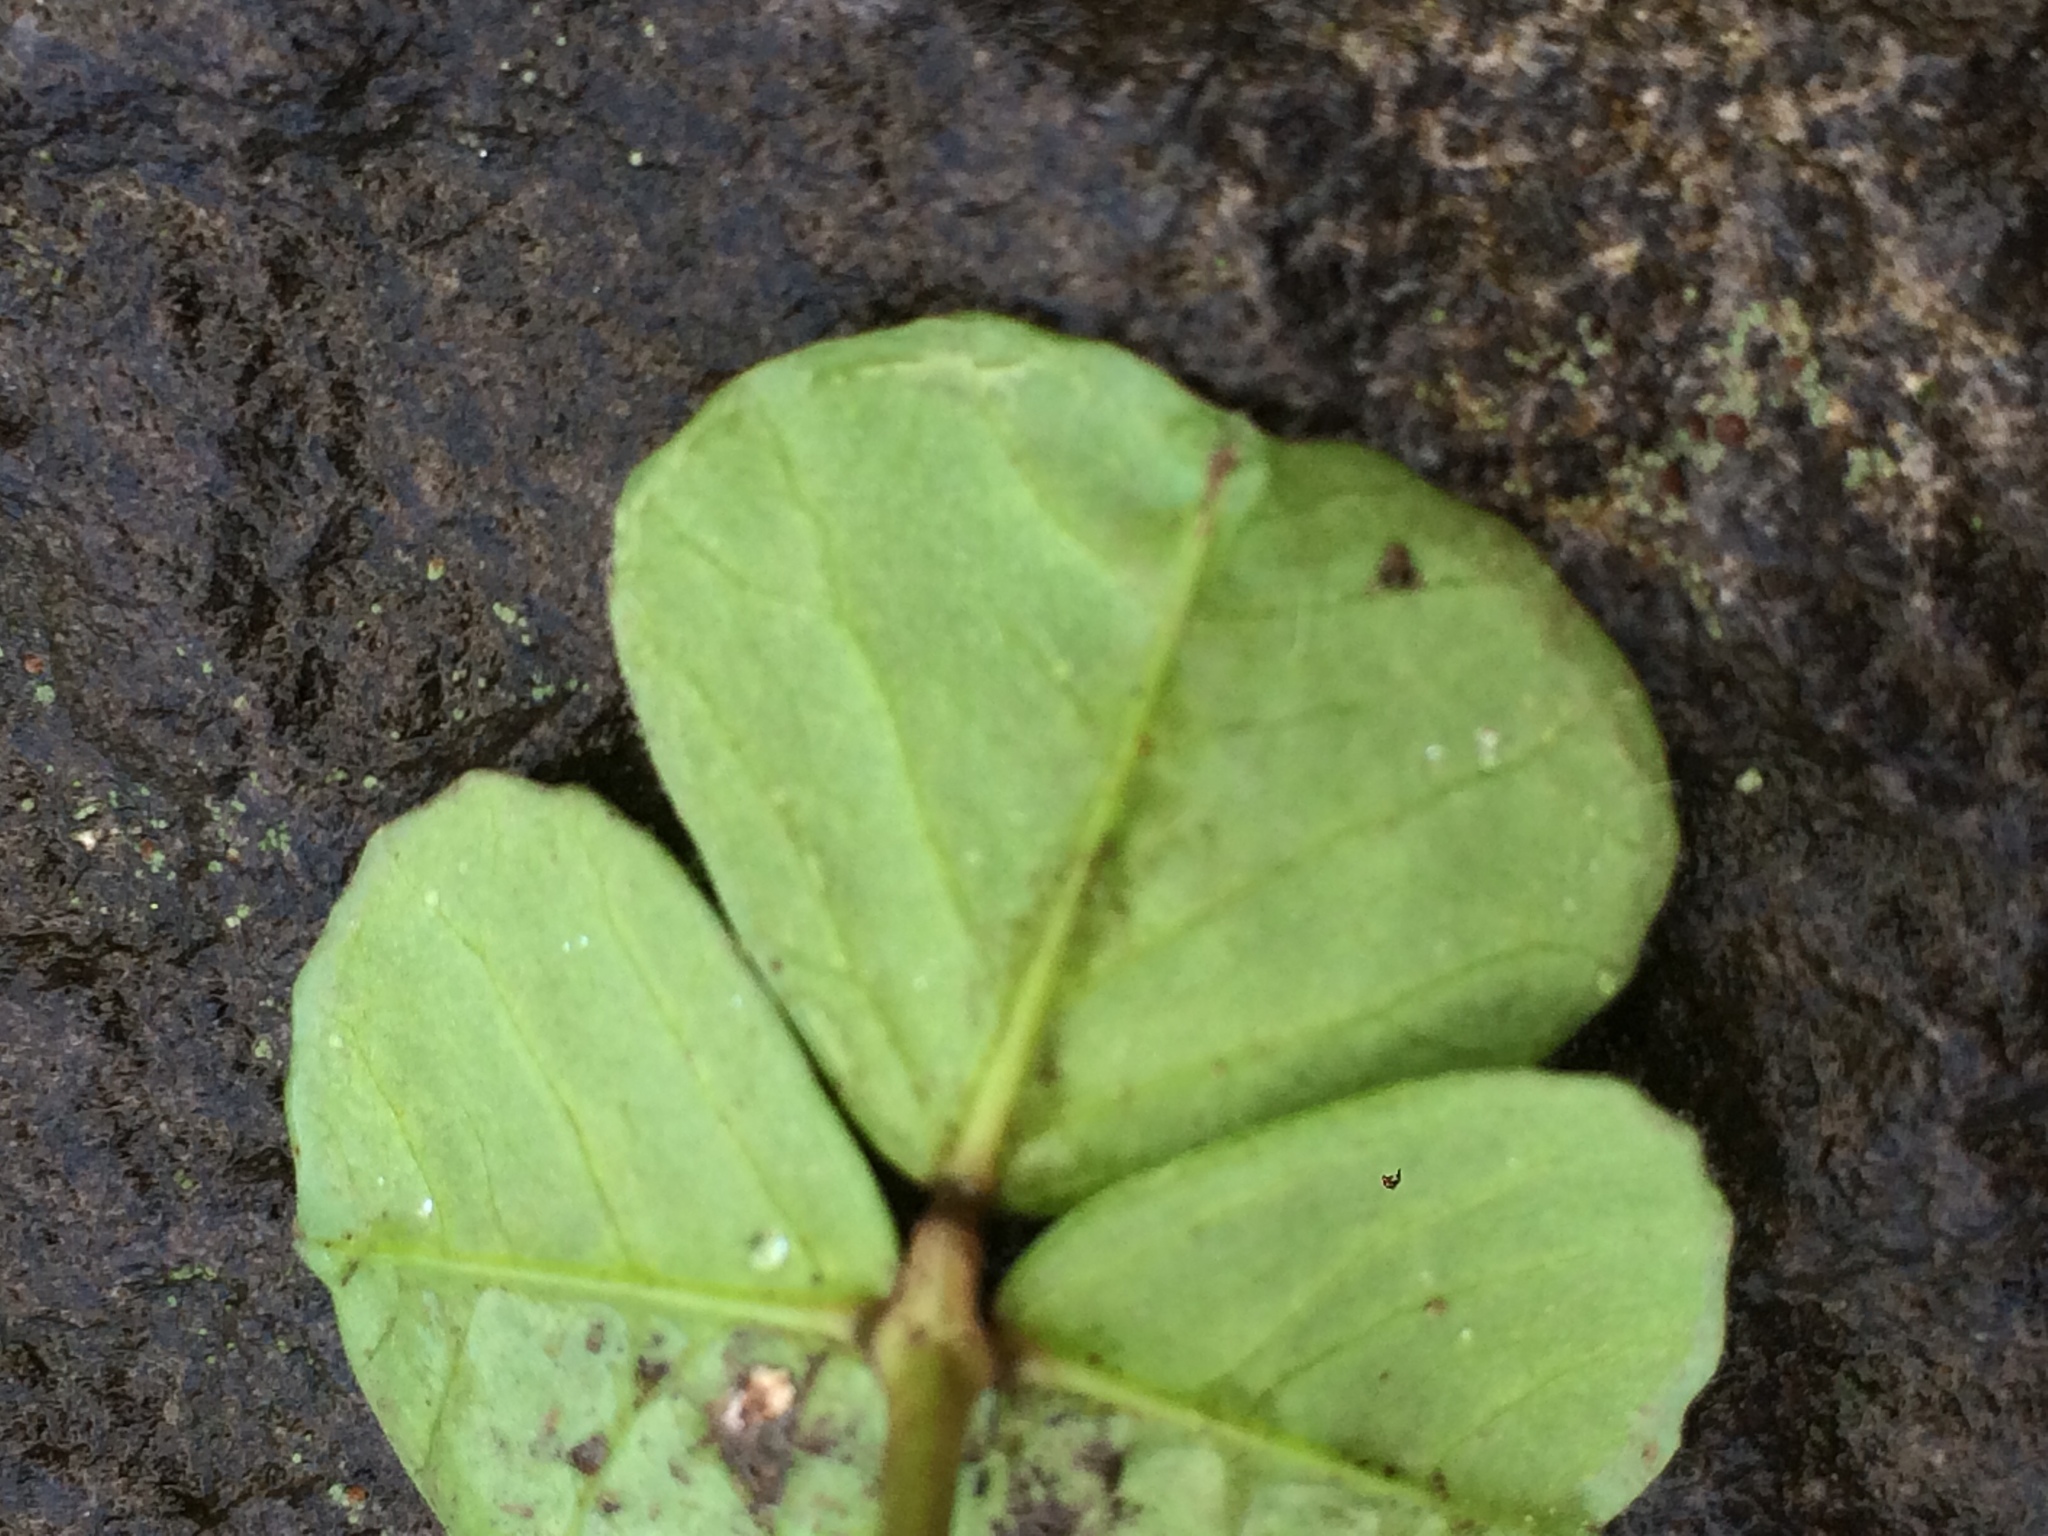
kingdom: Plantae
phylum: Tracheophyta
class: Magnoliopsida
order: Fabales
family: Fabaceae
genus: Medicago
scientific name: Medicago arabica
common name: Spotted medick
